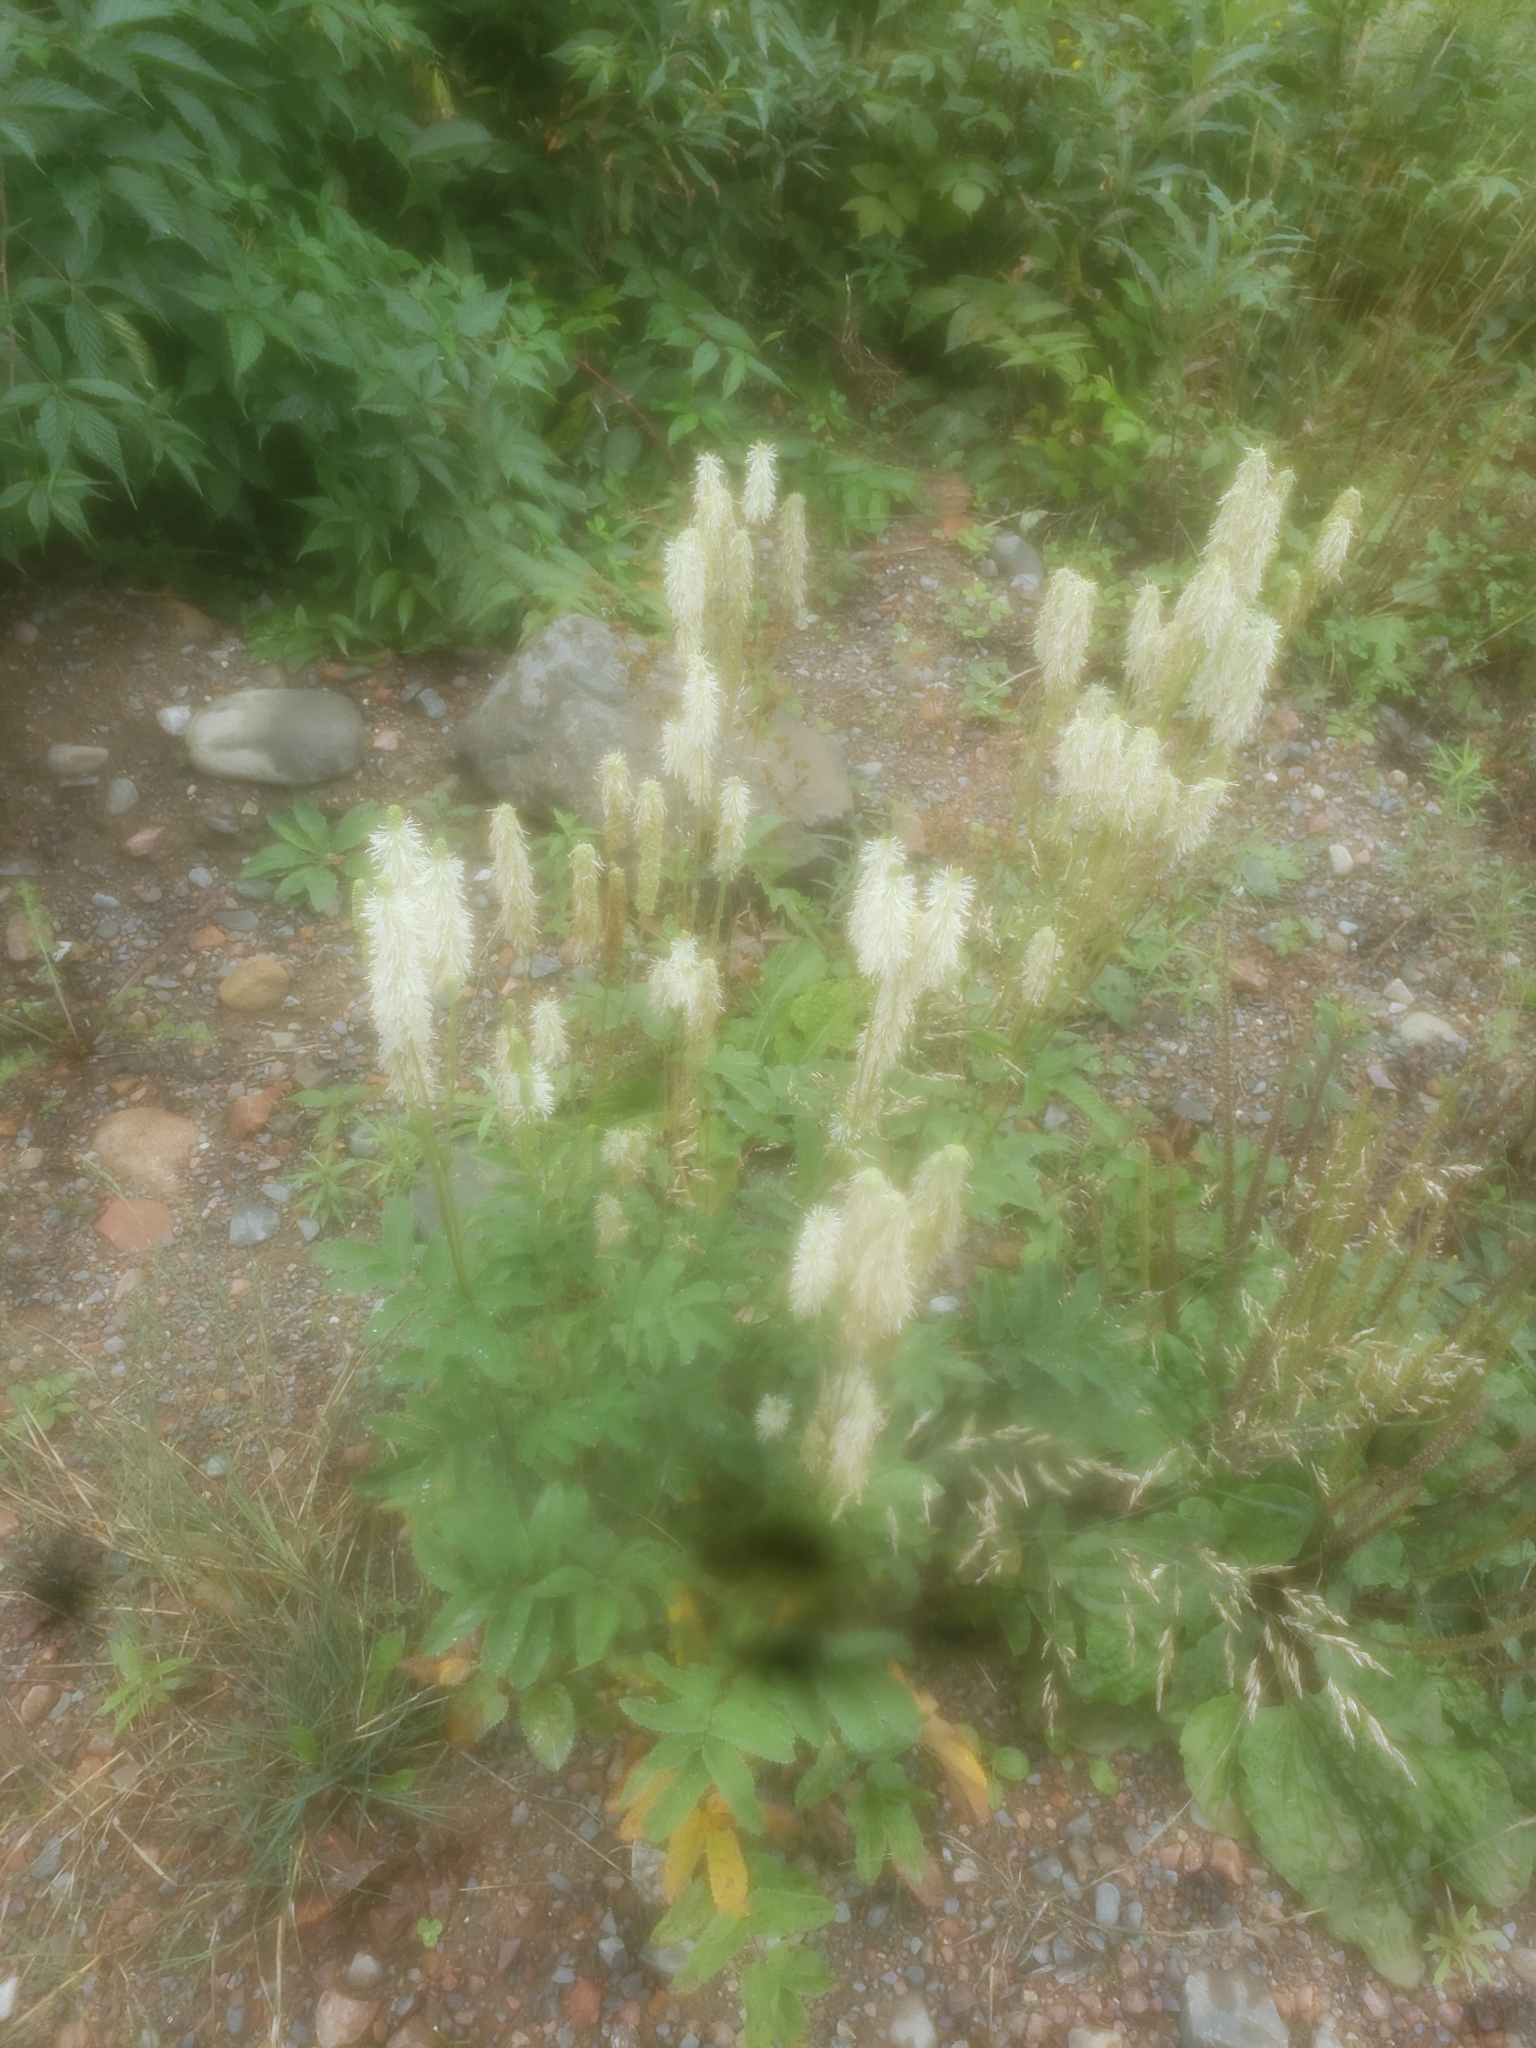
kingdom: Plantae
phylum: Tracheophyta
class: Magnoliopsida
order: Rosales
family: Rosaceae
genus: Sanguisorba
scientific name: Sanguisorba canadensis
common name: White burnet
